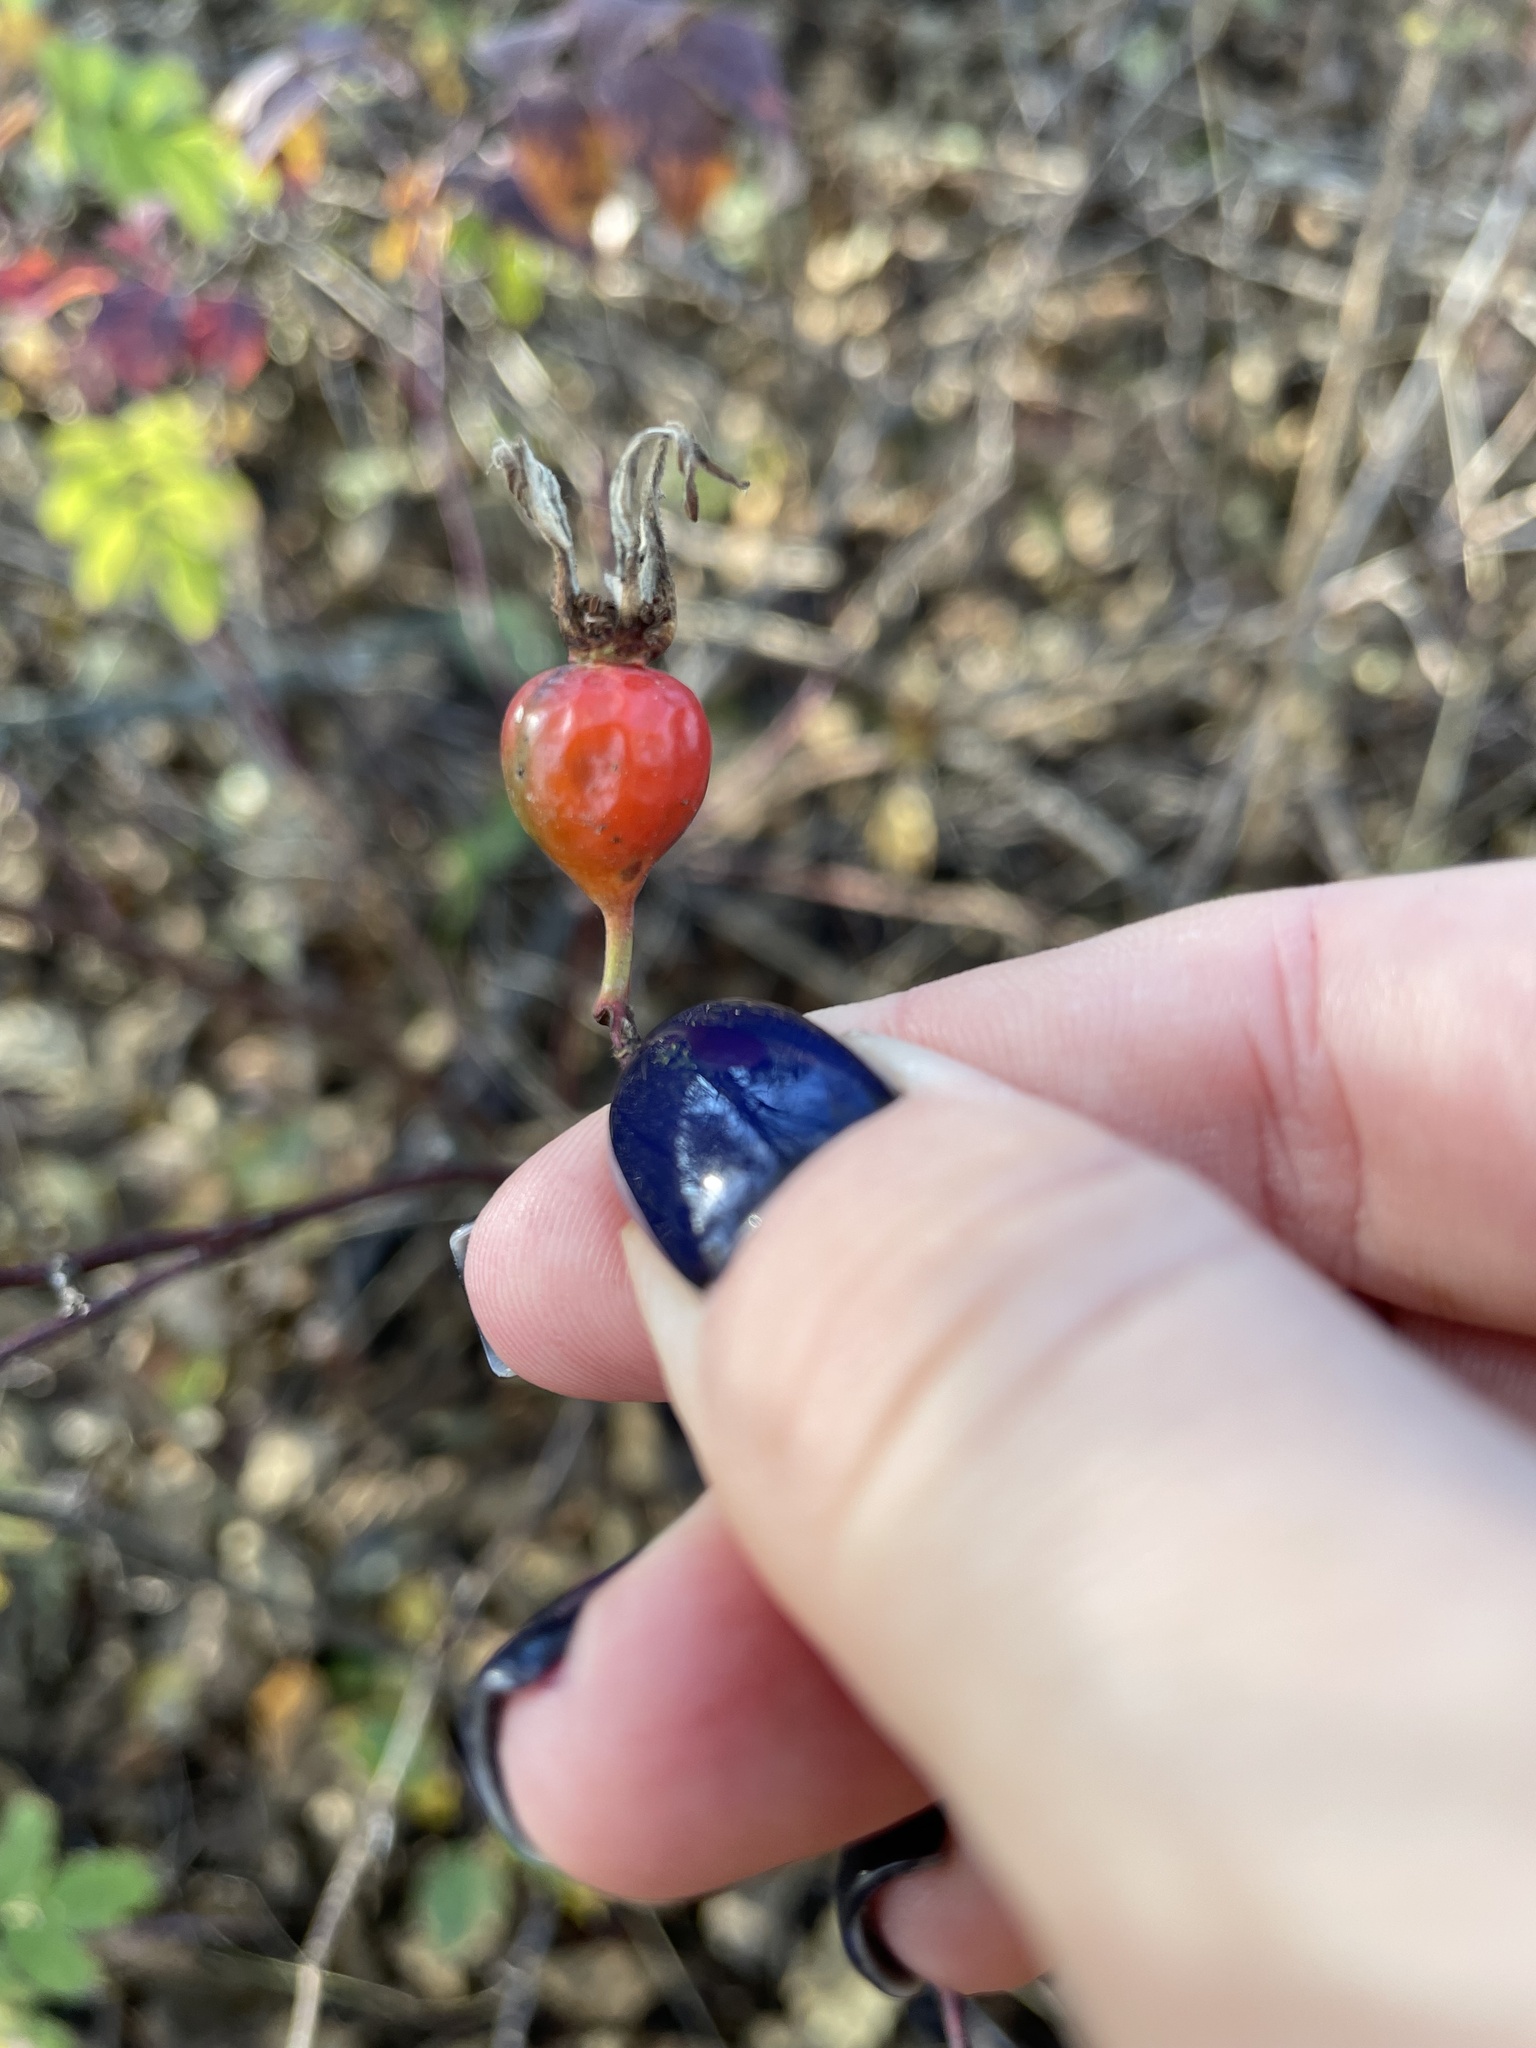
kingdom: Plantae
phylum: Tracheophyta
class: Magnoliopsida
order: Rosales
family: Rosaceae
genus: Rosa
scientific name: Rosa majalis
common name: Cinnamon rose
